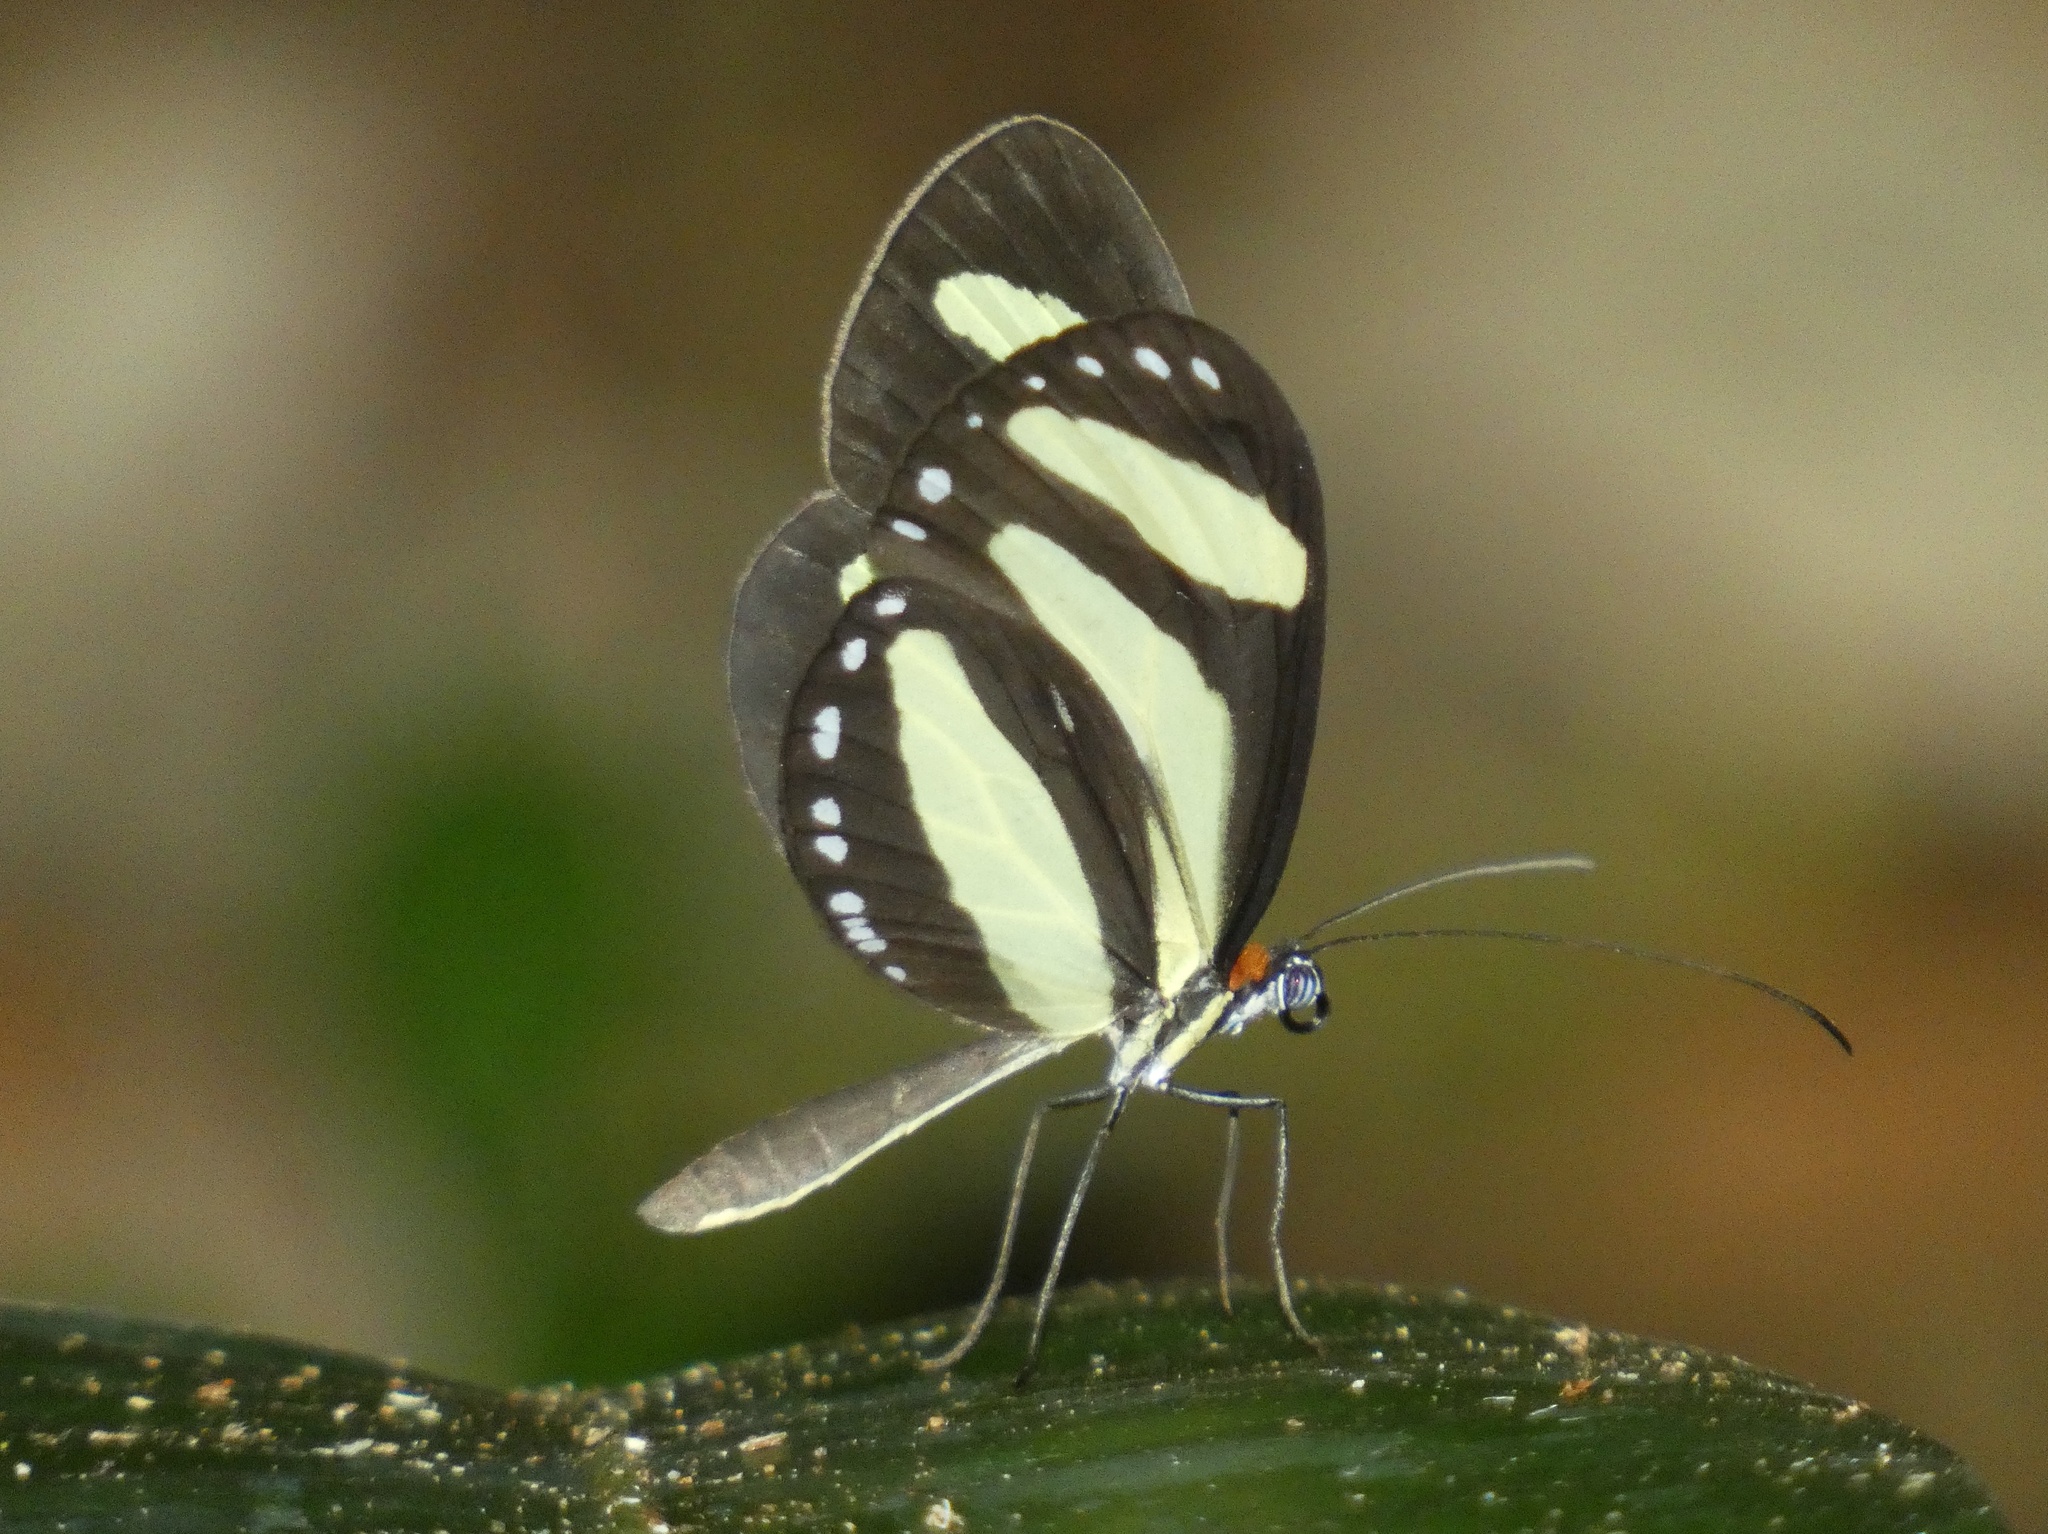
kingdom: Animalia
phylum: Arthropoda
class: Insecta
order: Lepidoptera
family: Nymphalidae
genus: Aeria
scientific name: Aeria eurimedia
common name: Banded tigerwing
